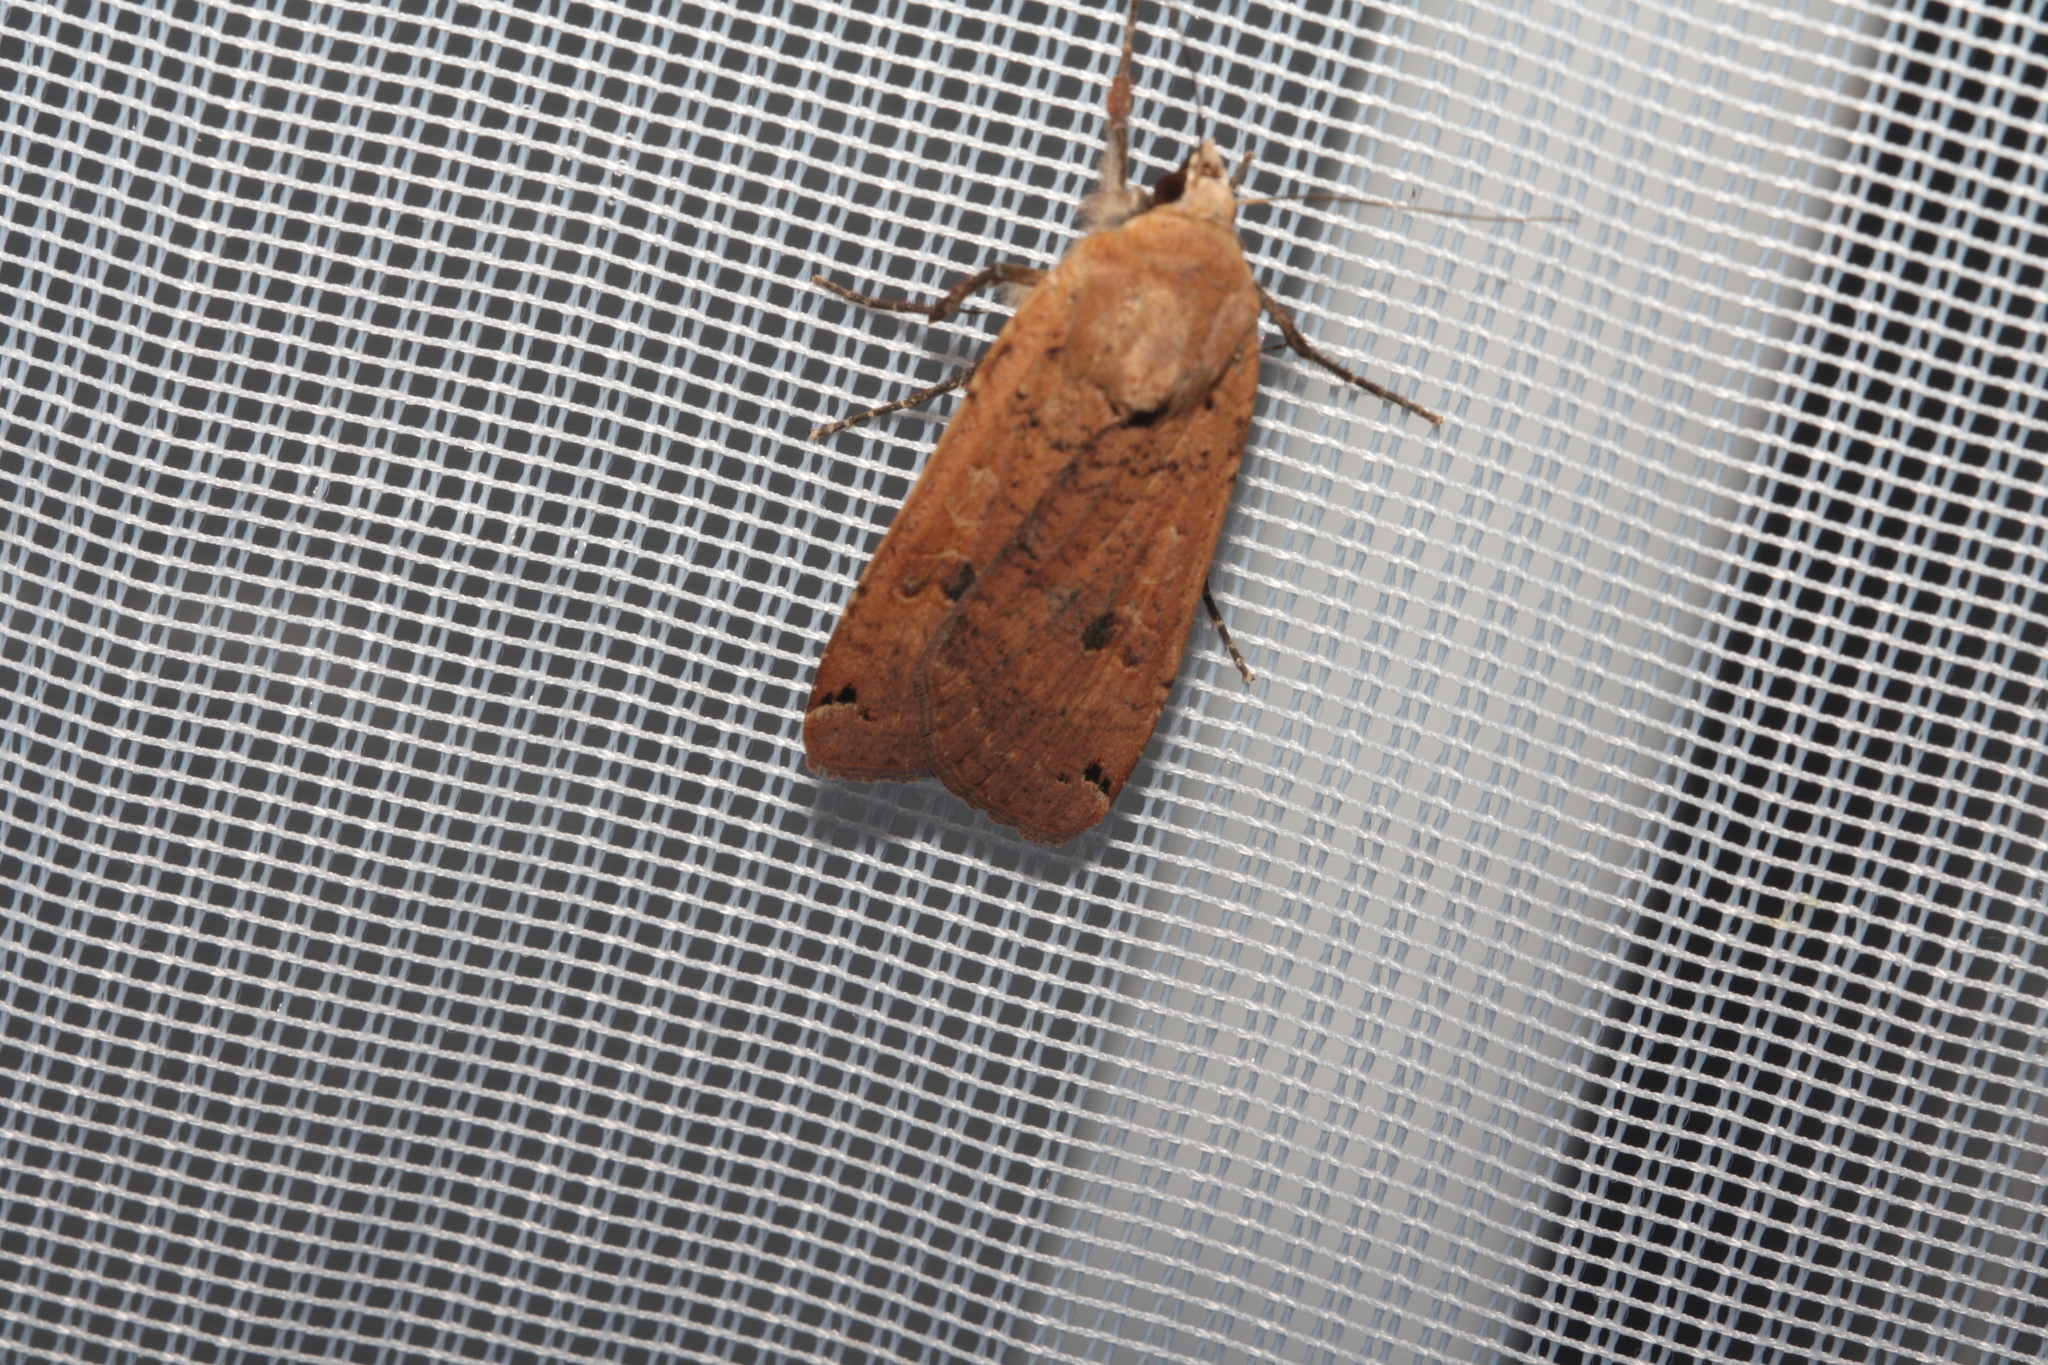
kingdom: Animalia
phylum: Arthropoda
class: Insecta
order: Lepidoptera
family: Noctuidae
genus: Noctua
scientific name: Noctua pronuba
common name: Large yellow underwing
